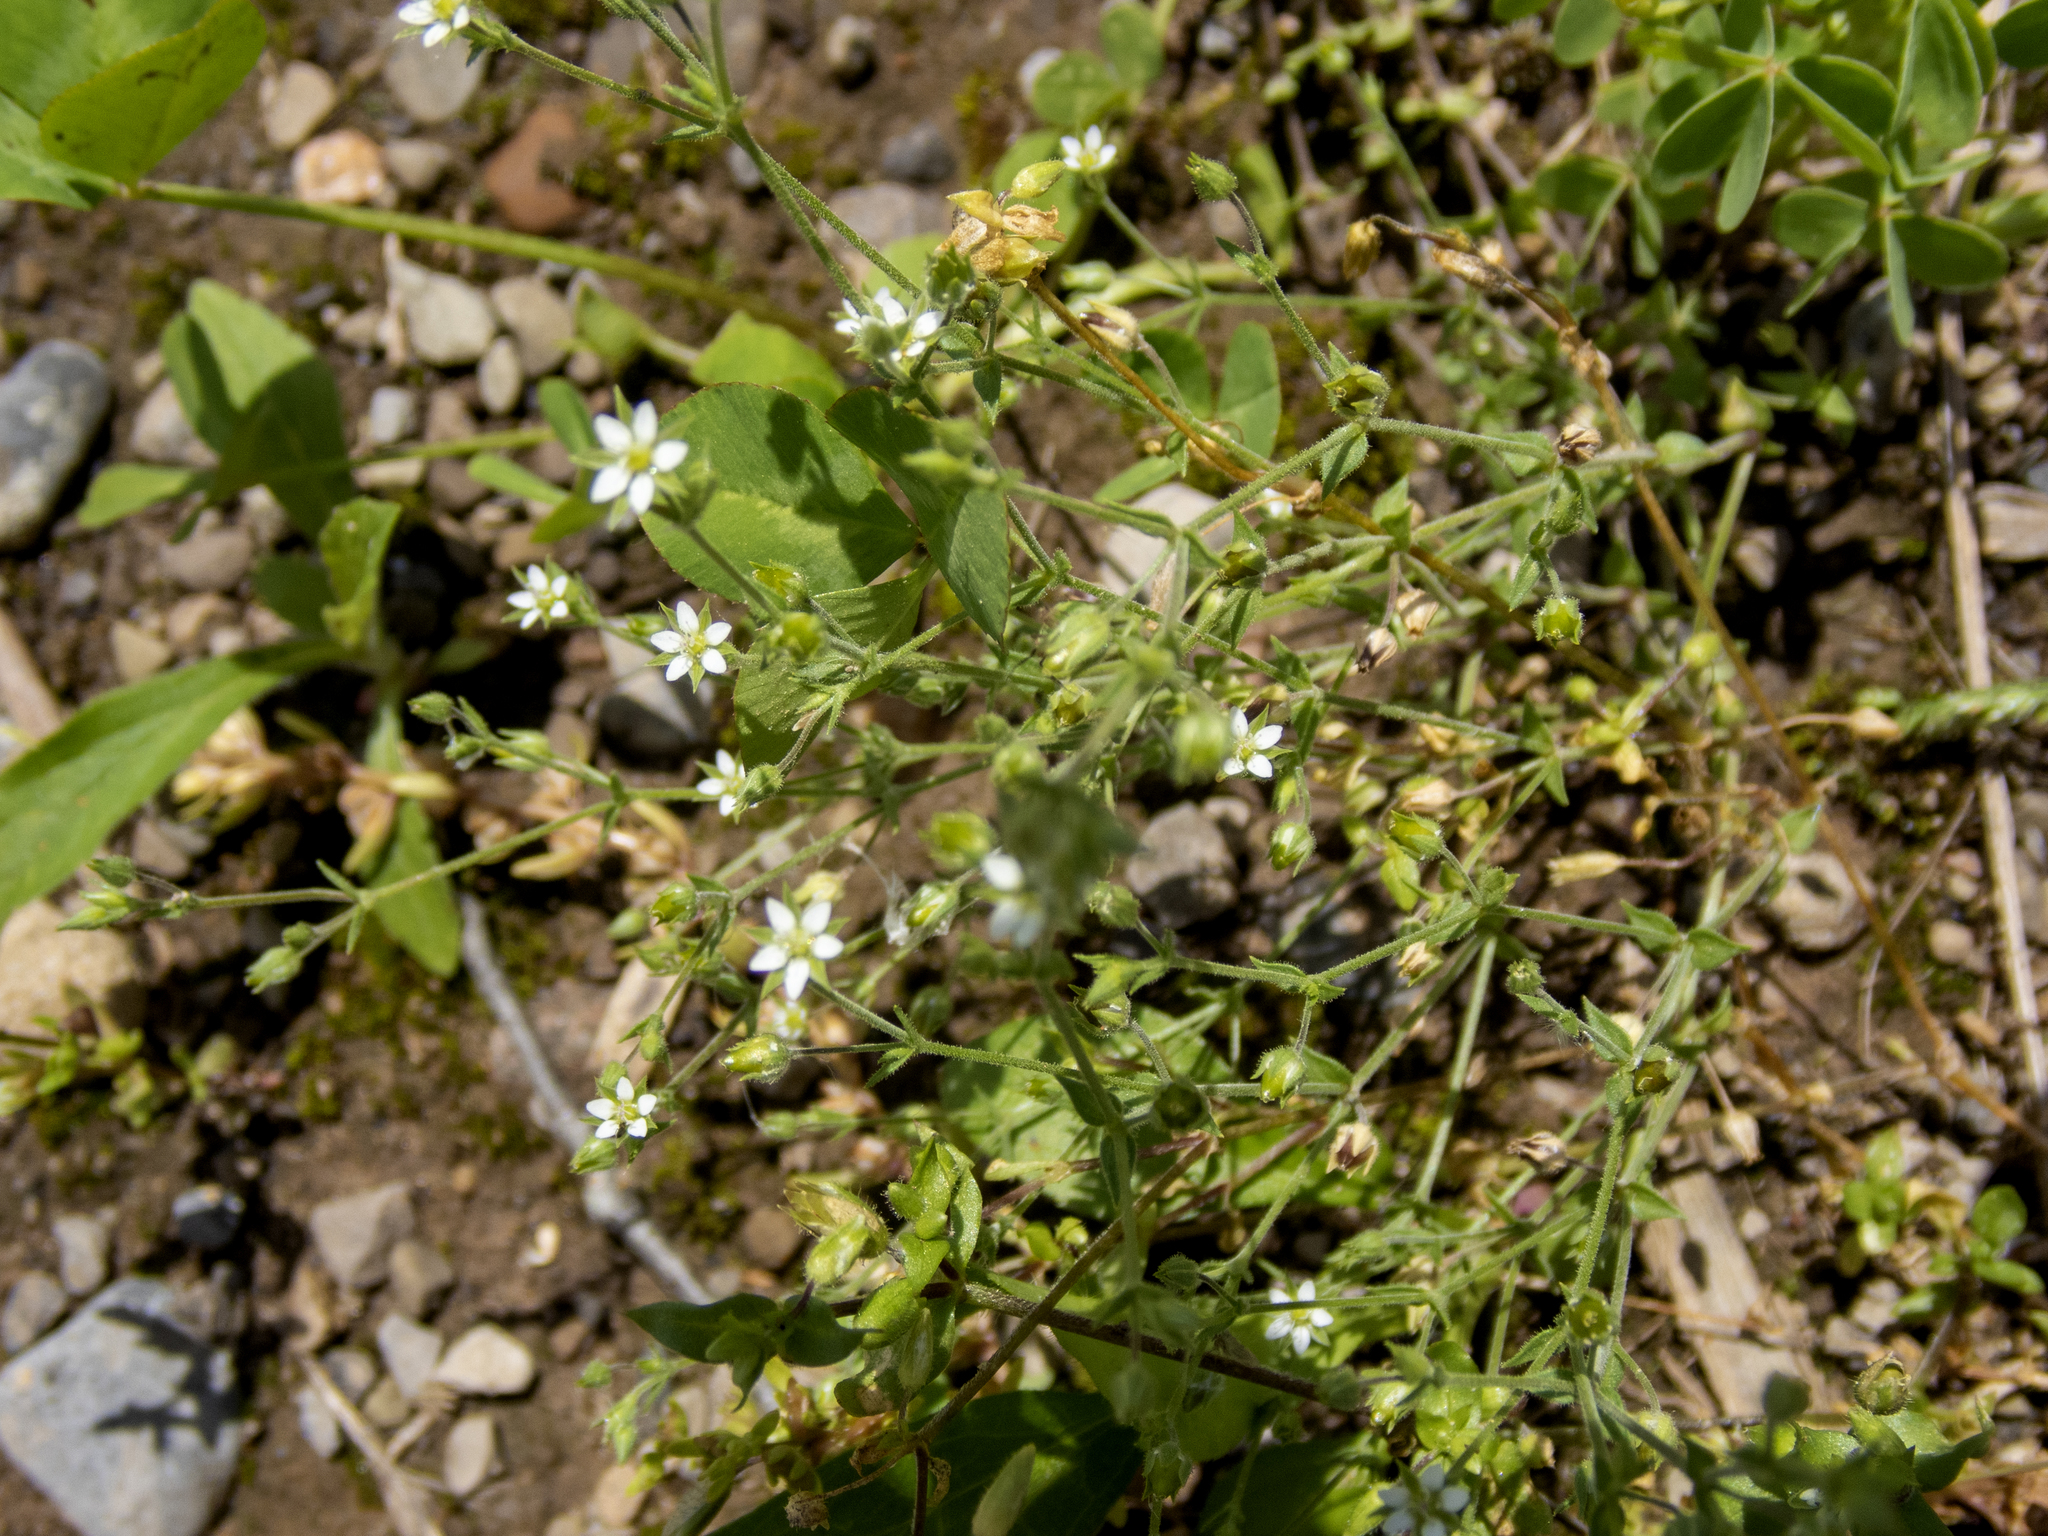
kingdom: Plantae
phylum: Tracheophyta
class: Magnoliopsida
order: Caryophyllales
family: Caryophyllaceae
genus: Arenaria
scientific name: Arenaria serpyllifolia
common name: Thyme-leaved sandwort
